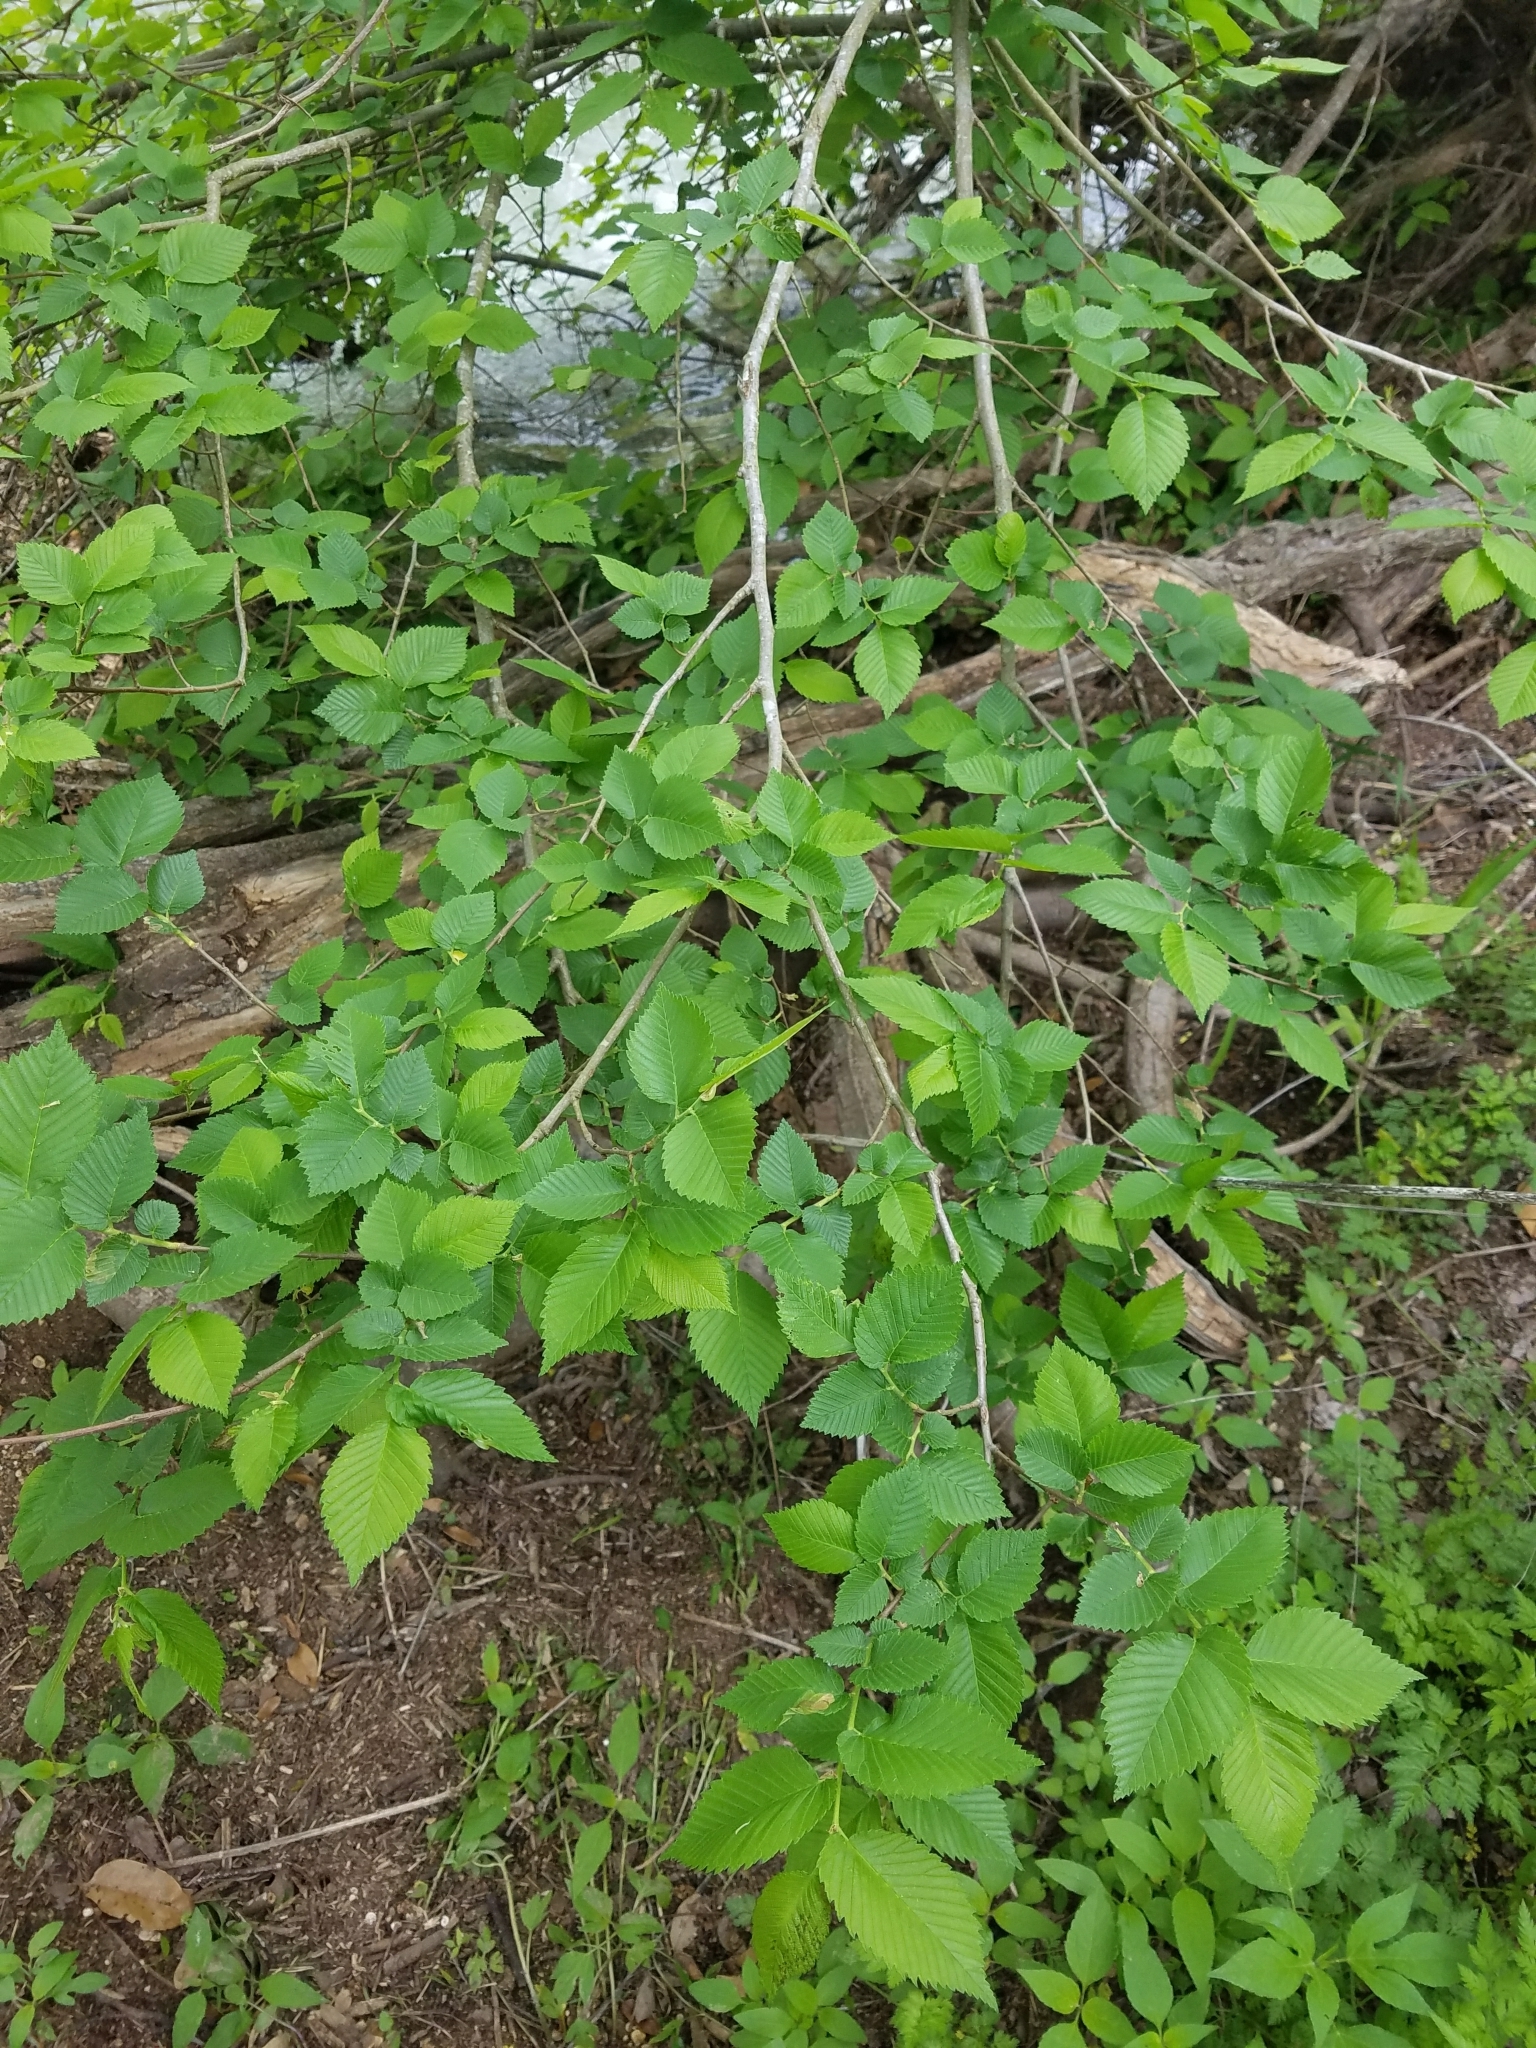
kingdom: Plantae
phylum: Tracheophyta
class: Magnoliopsida
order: Rosales
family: Ulmaceae
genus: Ulmus
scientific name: Ulmus americana
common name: American elm
